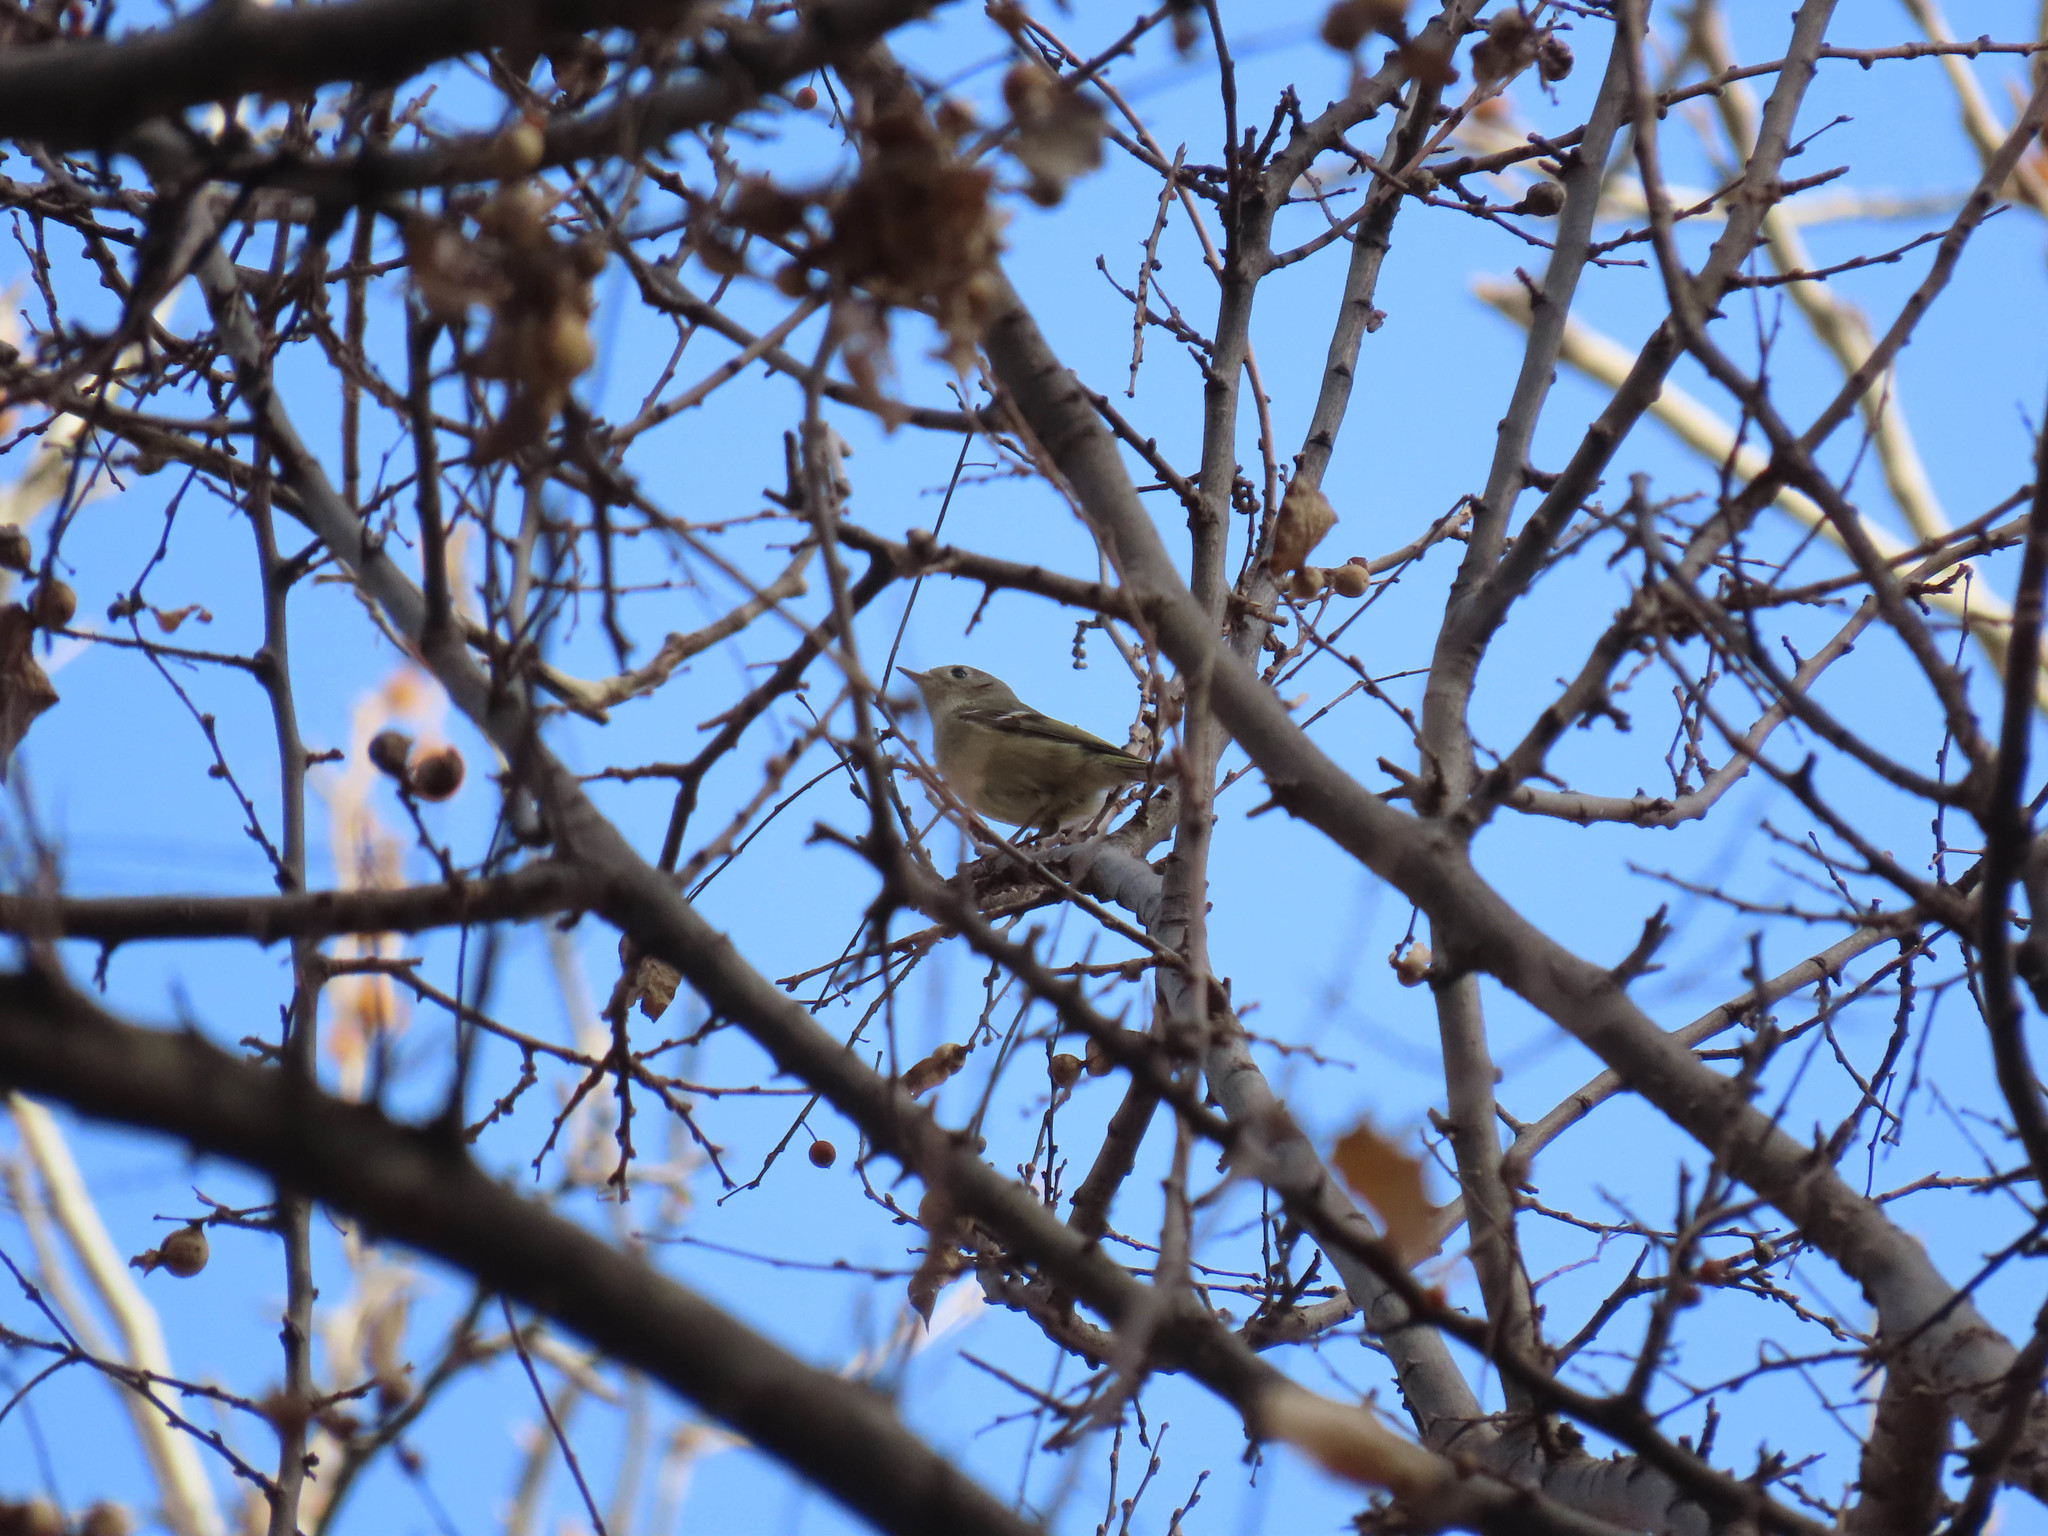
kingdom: Animalia
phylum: Chordata
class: Aves
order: Passeriformes
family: Regulidae
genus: Regulus
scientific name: Regulus calendula
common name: Ruby-crowned kinglet
